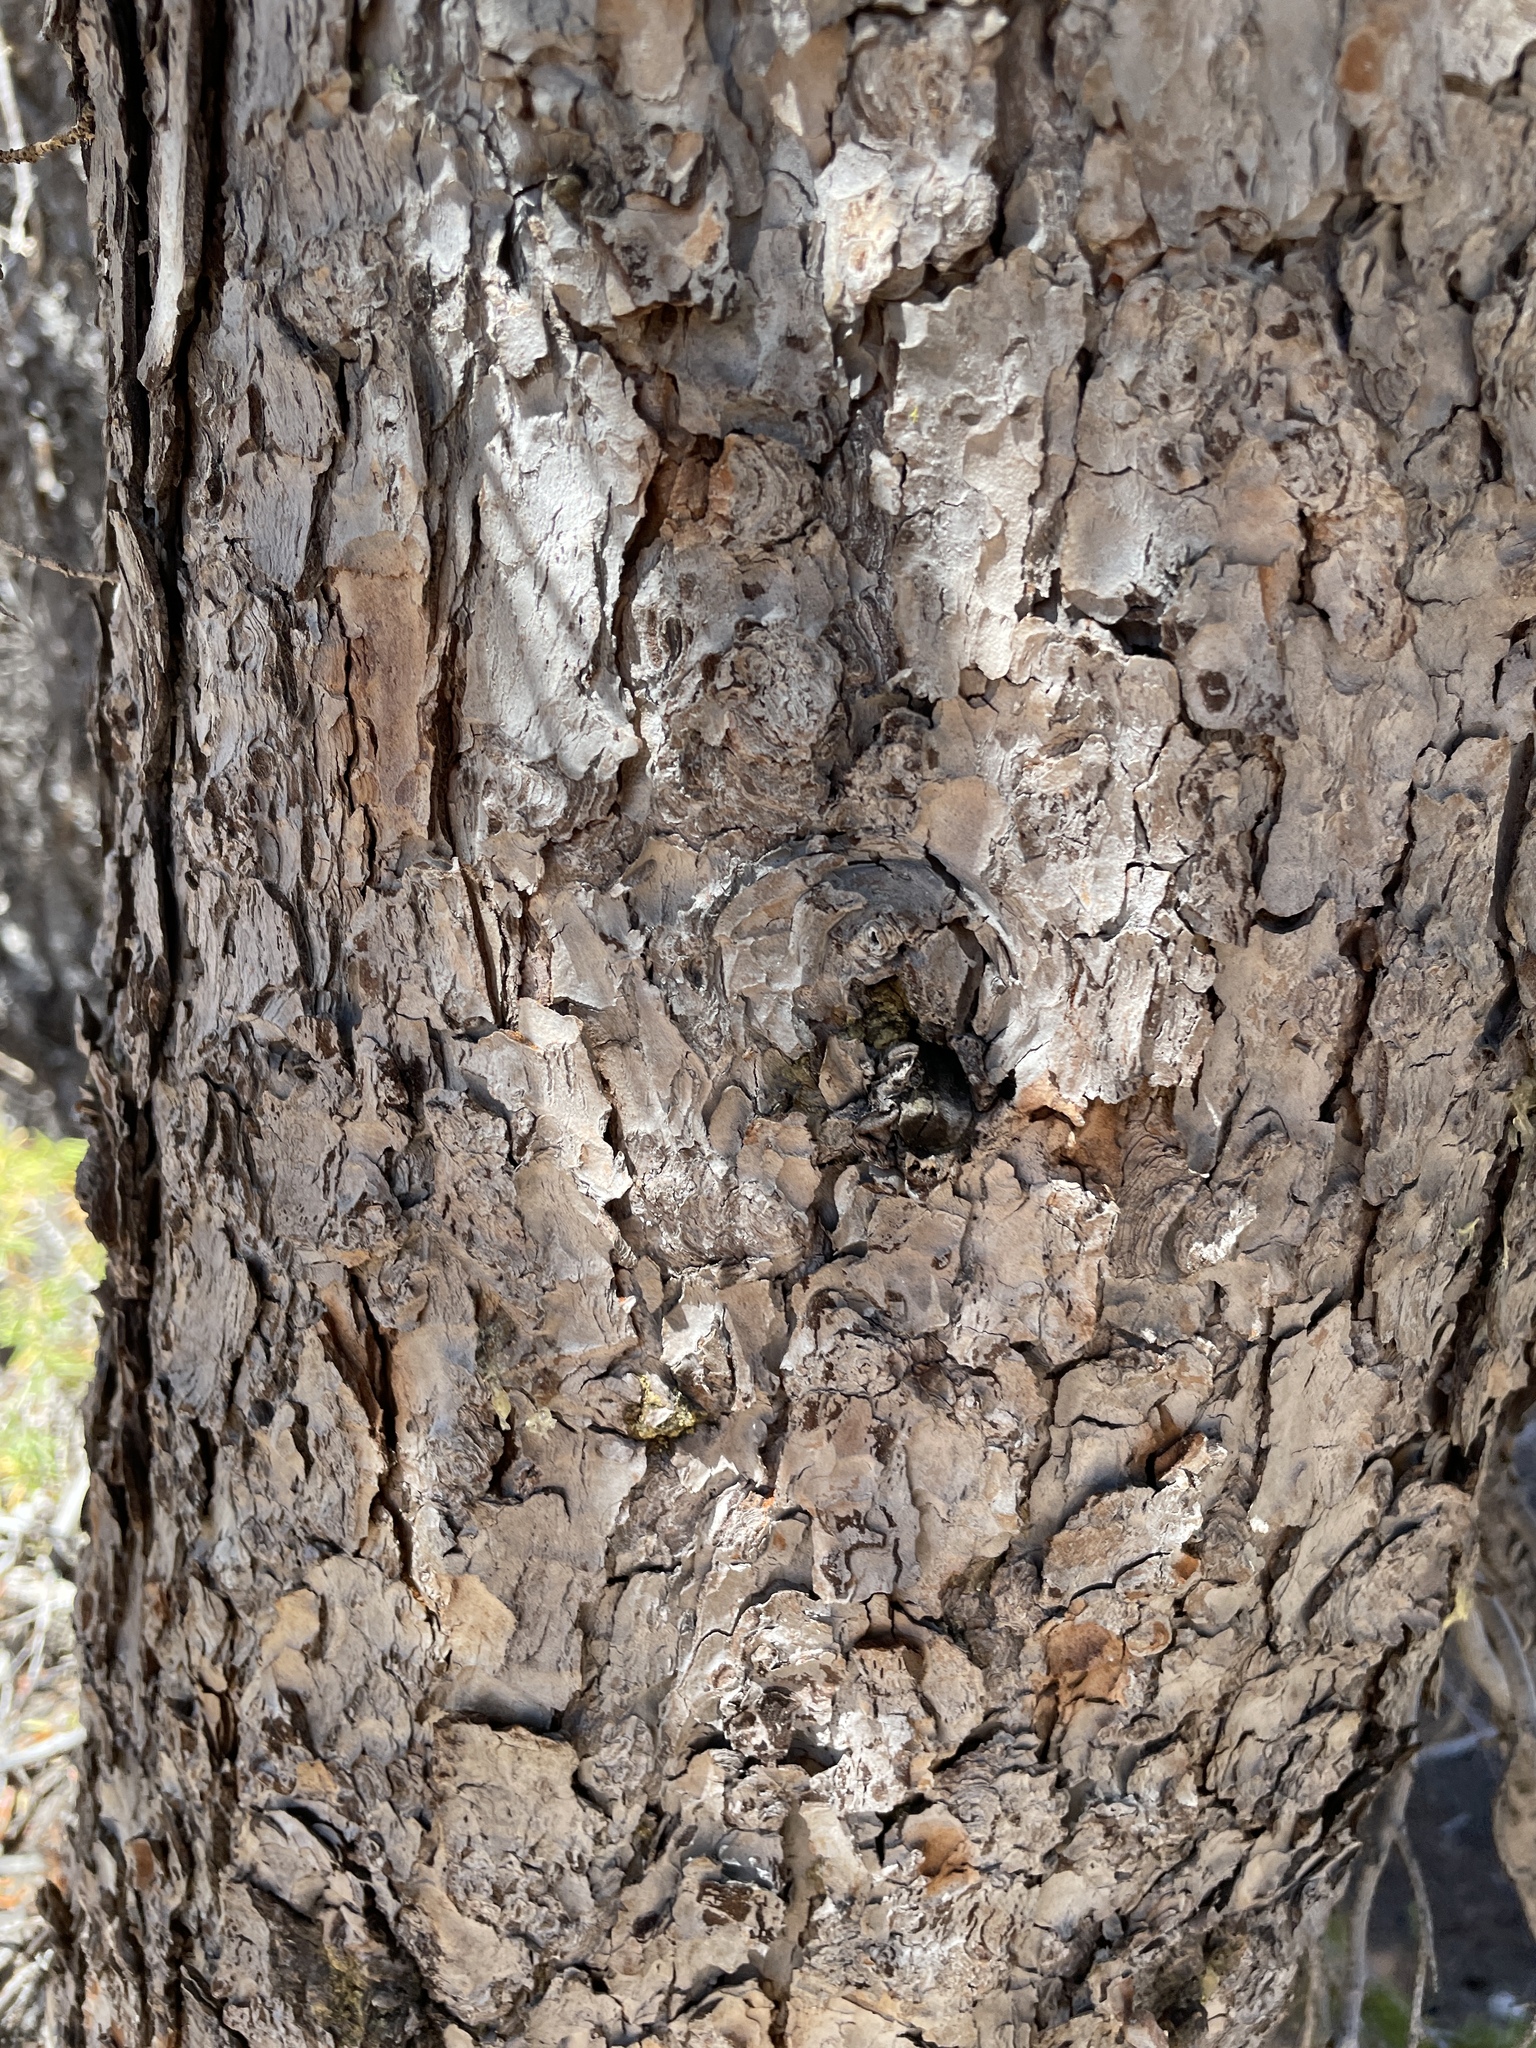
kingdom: Plantae
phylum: Tracheophyta
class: Pinopsida
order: Pinales
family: Pinaceae
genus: Tsuga
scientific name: Tsuga mertensiana
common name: Mountain hemlock
